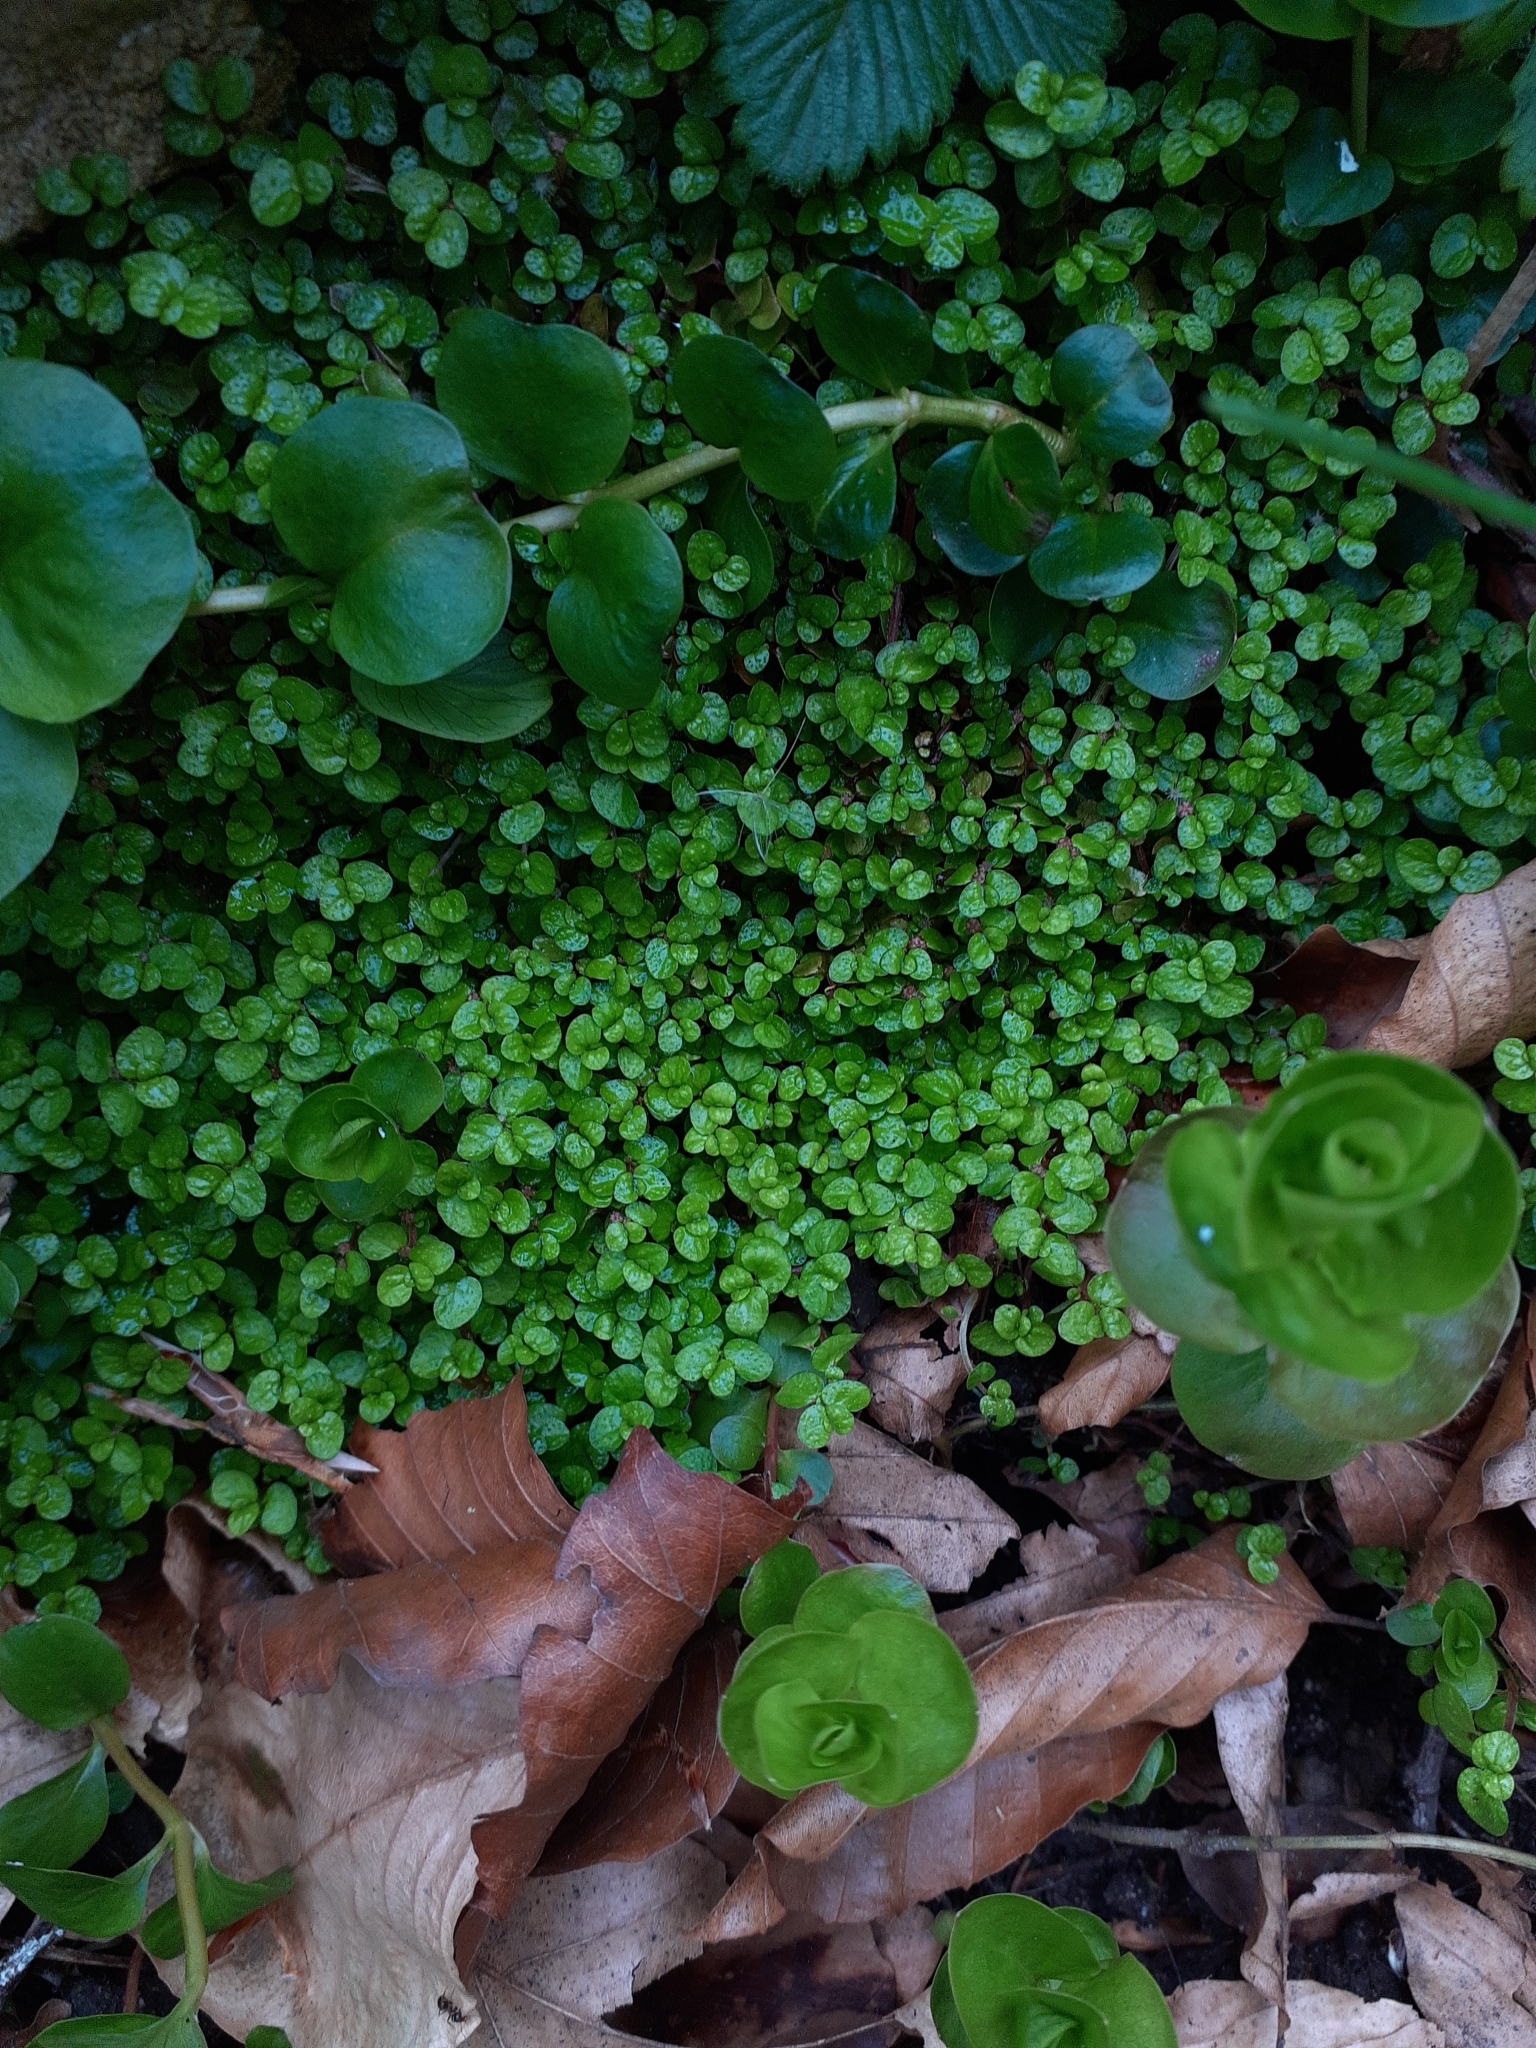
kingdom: Plantae
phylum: Tracheophyta
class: Magnoliopsida
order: Rosales
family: Urticaceae
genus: Soleirolia
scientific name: Soleirolia soleirolii
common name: Mind-your-own-business
